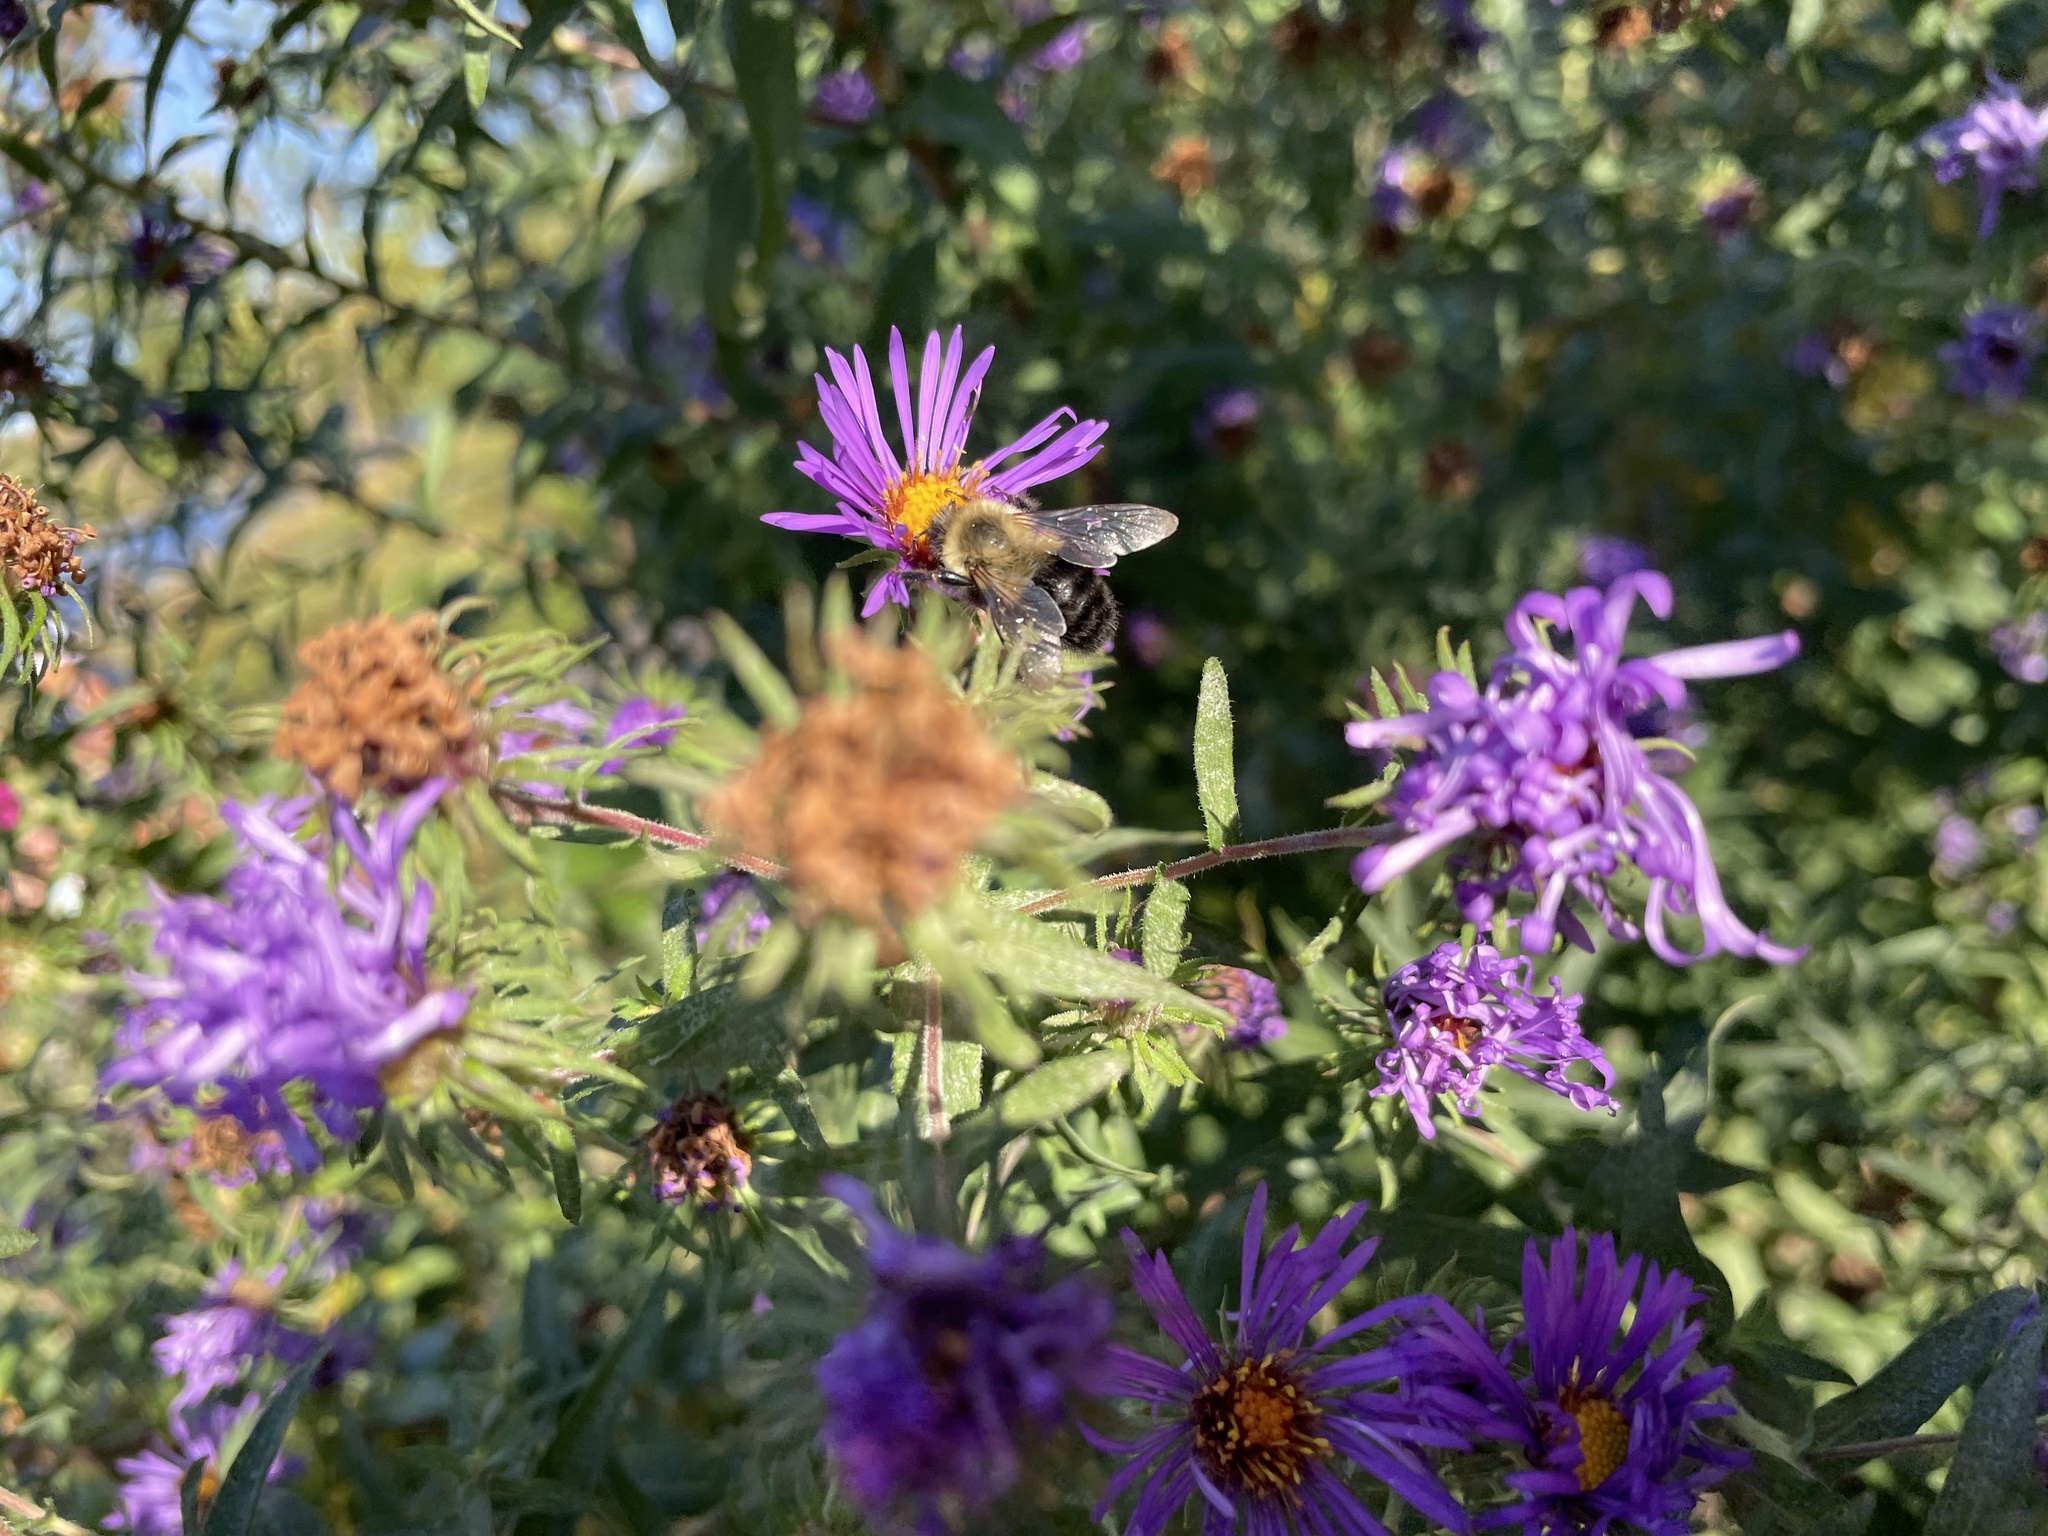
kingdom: Plantae
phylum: Tracheophyta
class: Magnoliopsida
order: Asterales
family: Asteraceae
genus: Symphyotrichum
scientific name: Symphyotrichum novae-angliae
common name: Michaelmas daisy
